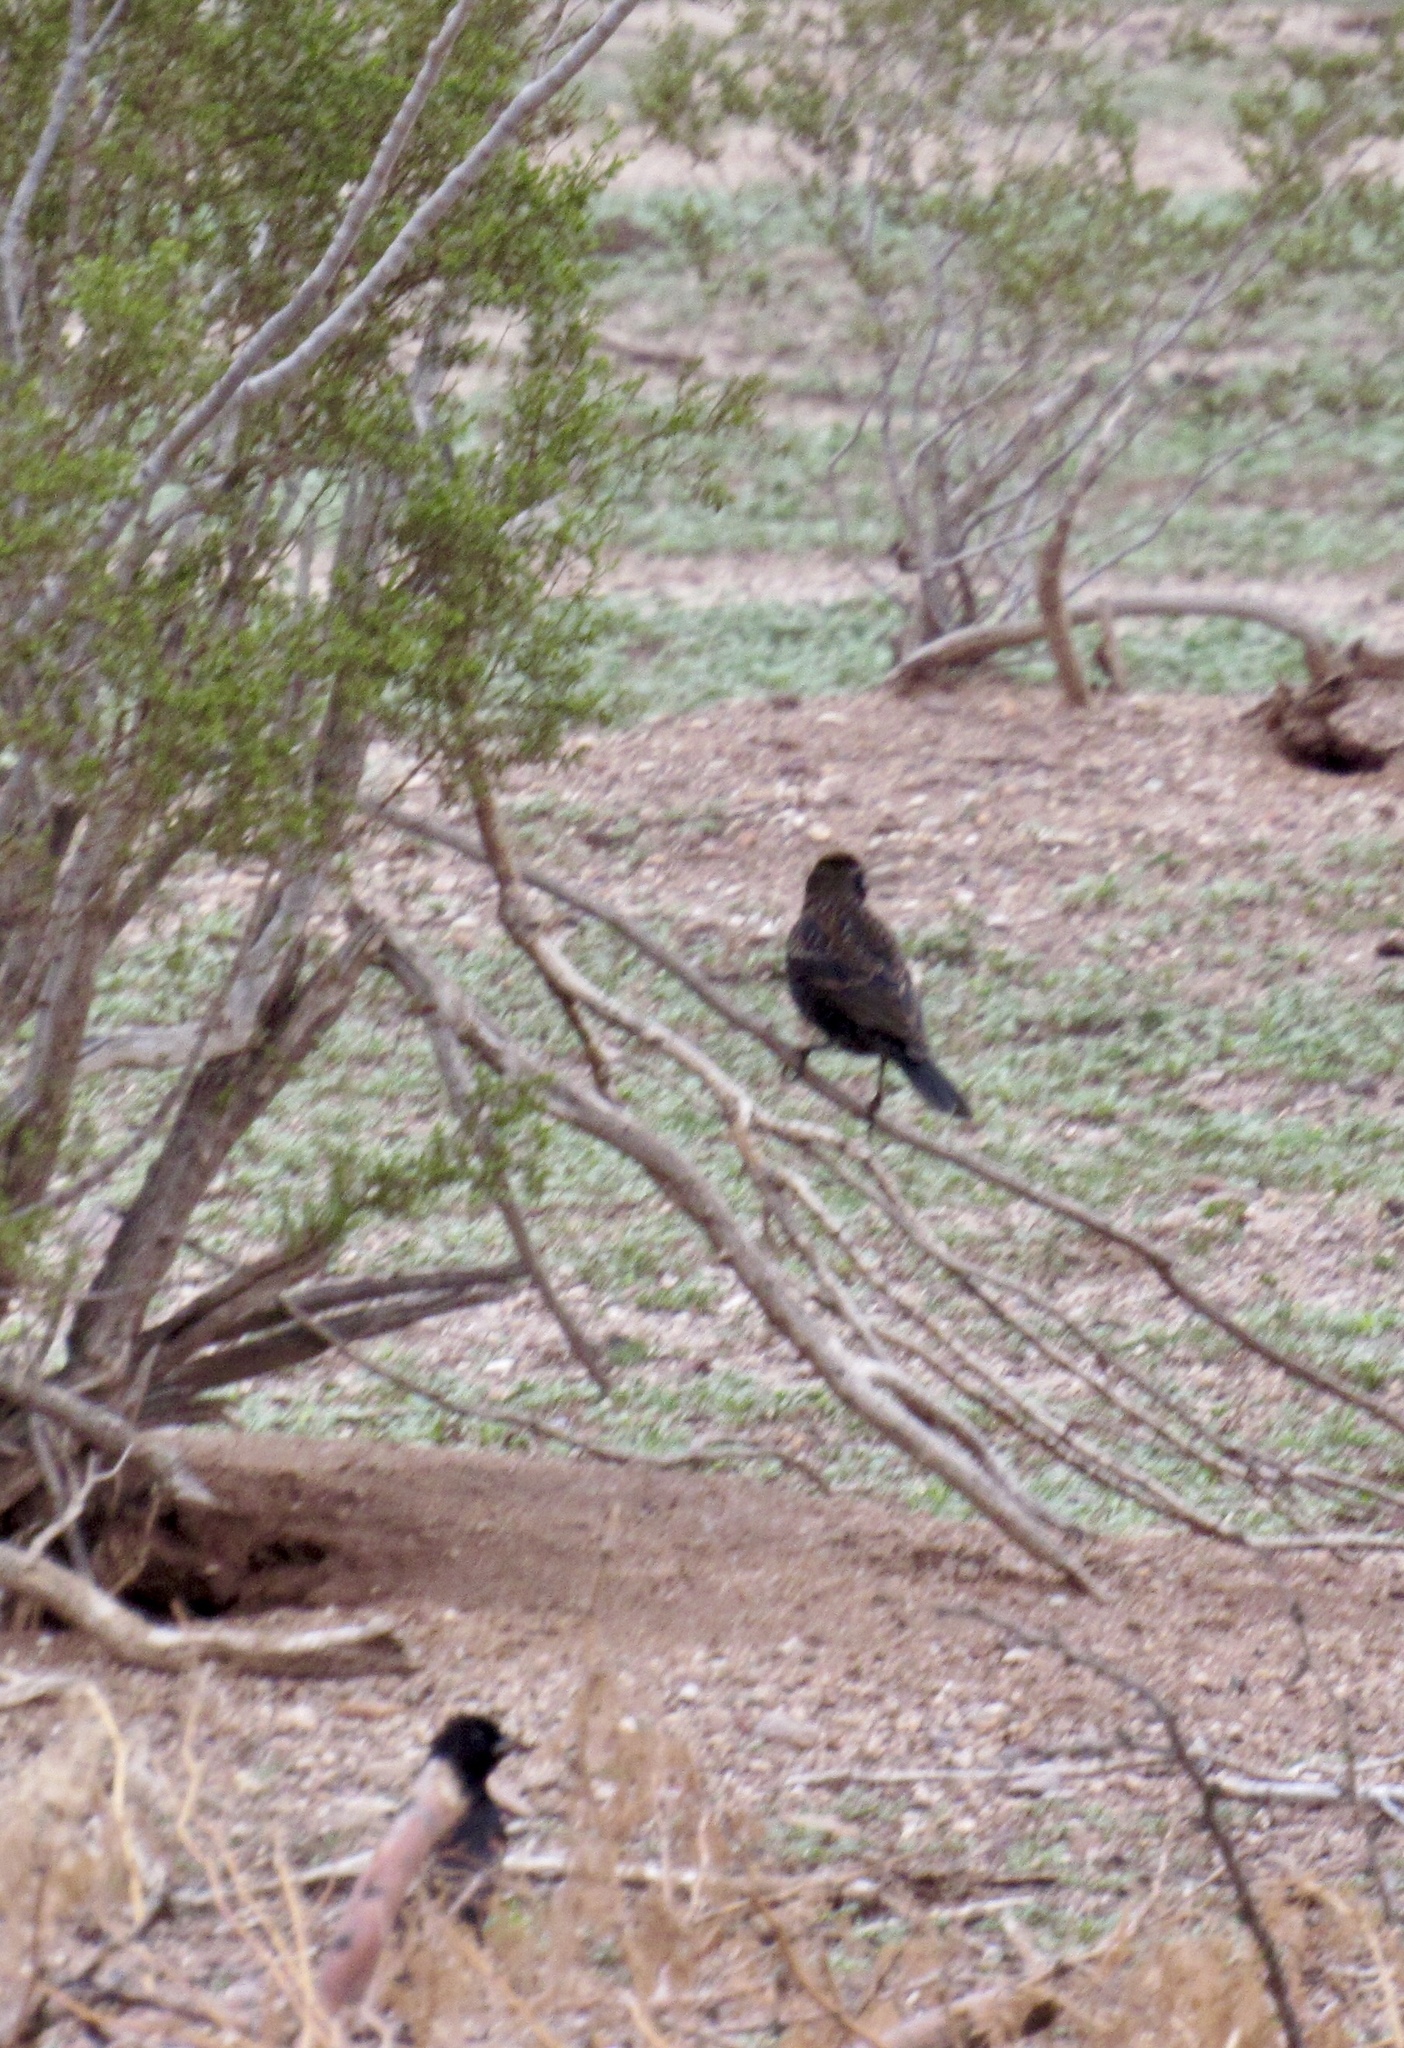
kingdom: Animalia
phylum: Chordata
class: Aves
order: Passeriformes
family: Icteridae
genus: Agelaius
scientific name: Agelaius phoeniceus
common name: Red-winged blackbird
